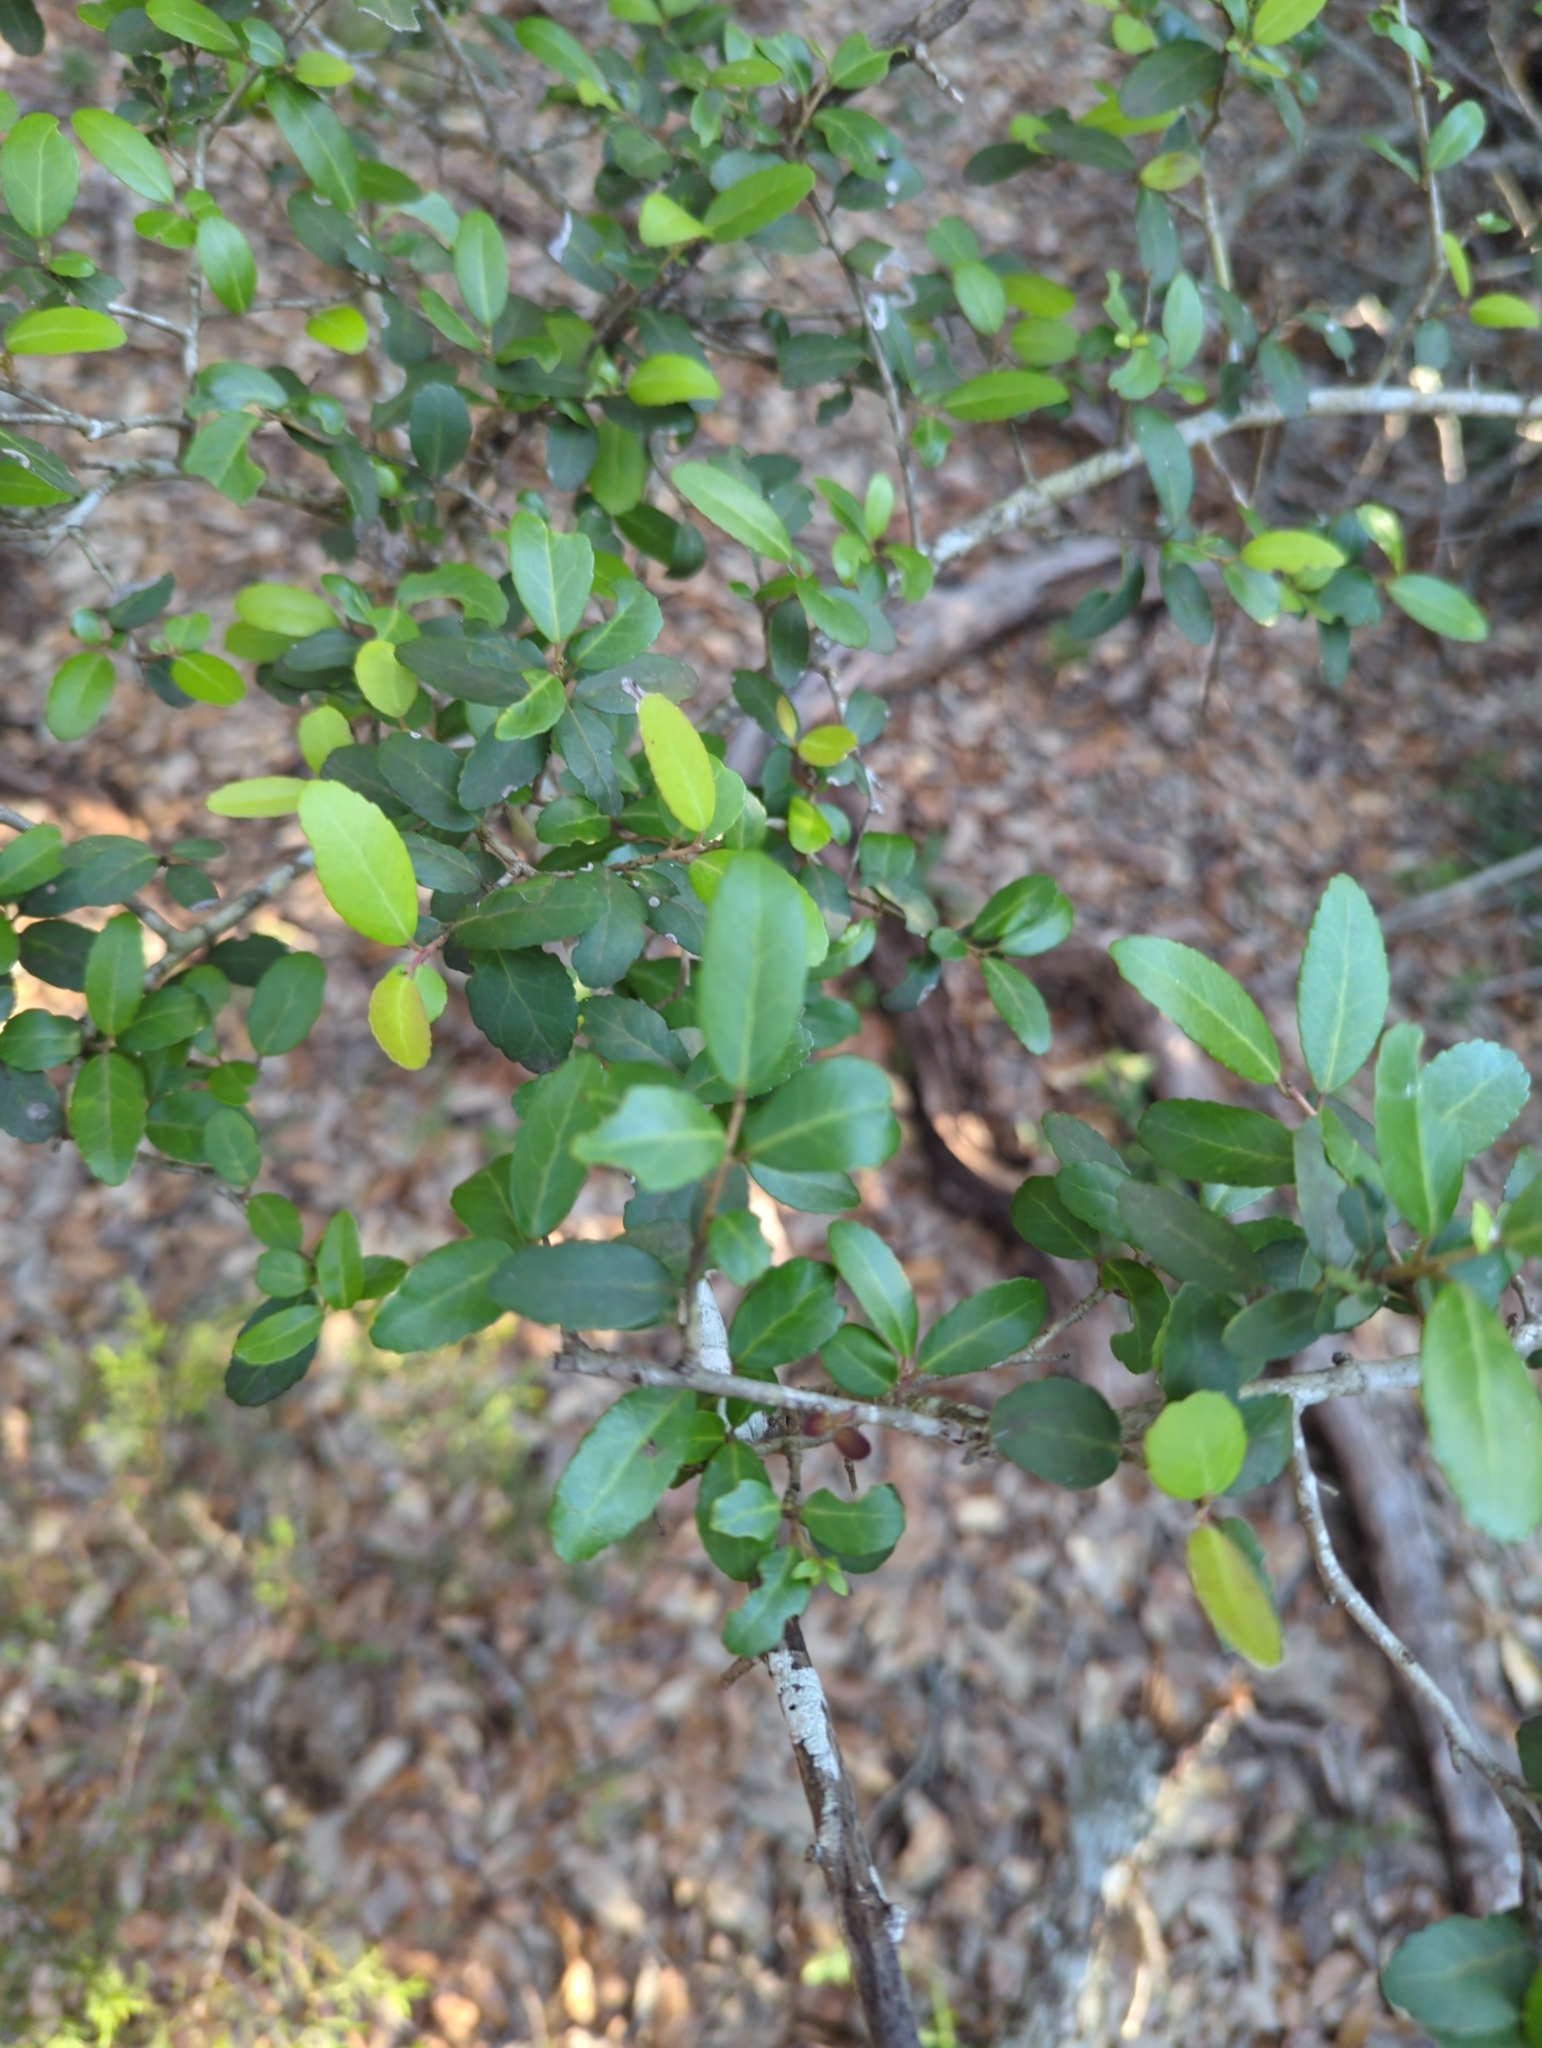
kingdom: Plantae
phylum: Tracheophyta
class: Magnoliopsida
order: Aquifoliales
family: Aquifoliaceae
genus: Ilex
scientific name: Ilex vomitoria
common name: Yaupon holly
